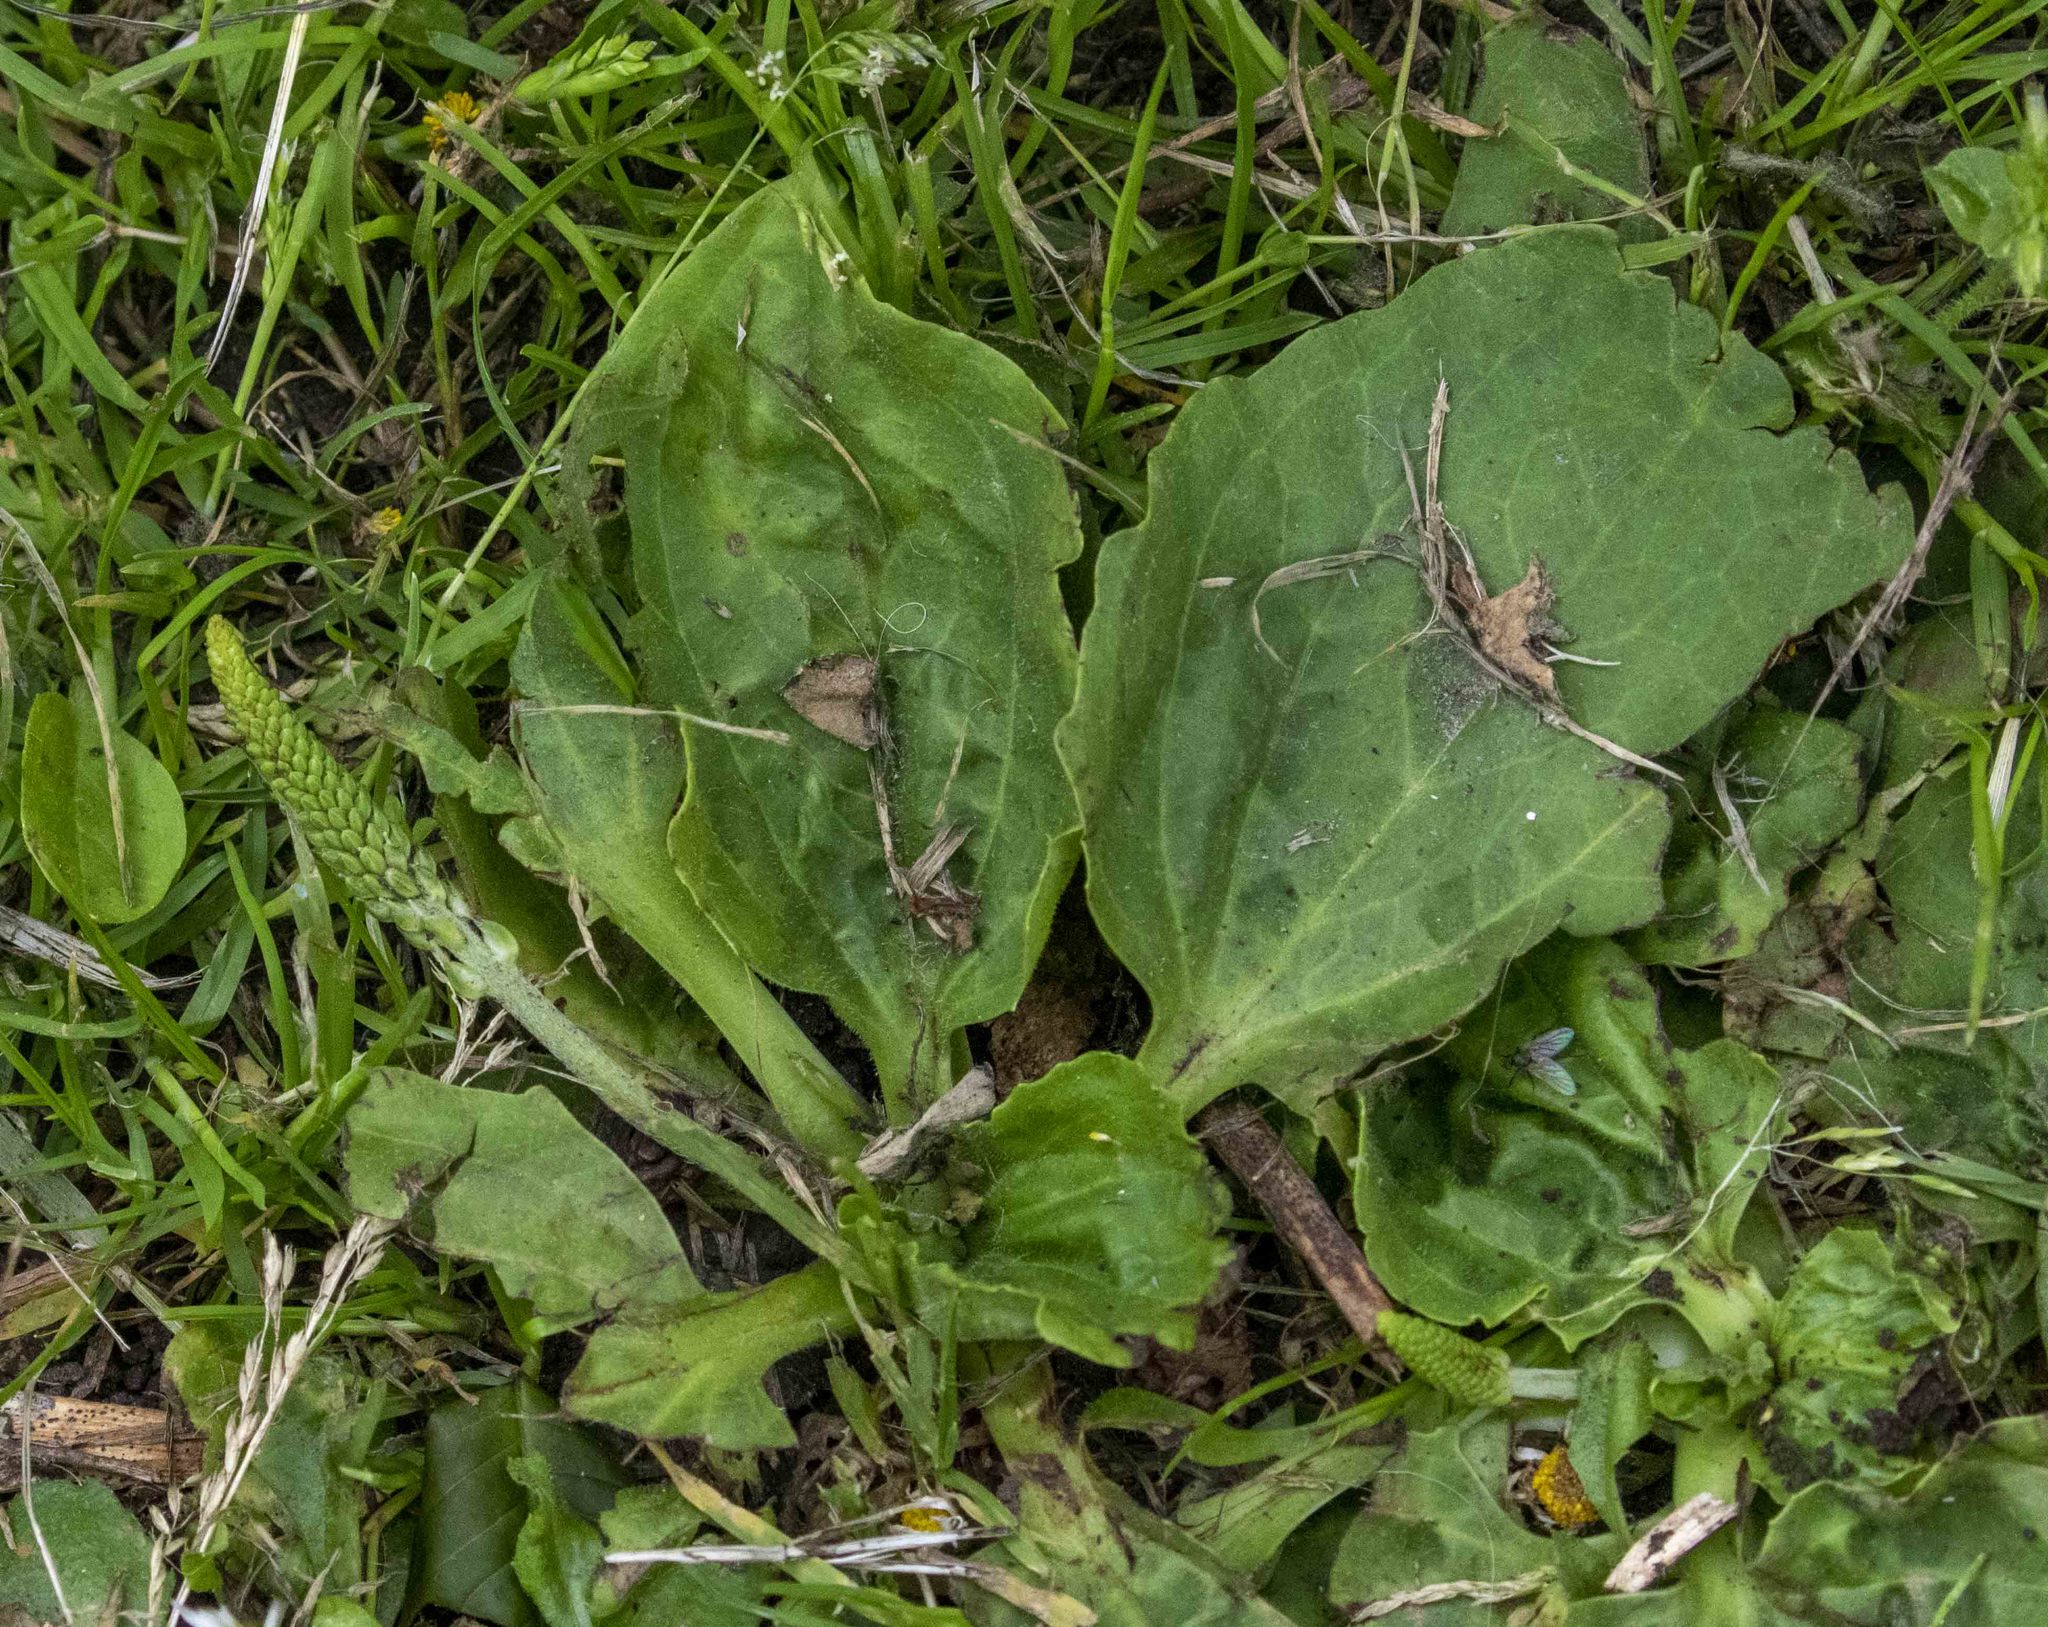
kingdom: Plantae
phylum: Tracheophyta
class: Magnoliopsida
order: Lamiales
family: Plantaginaceae
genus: Plantago
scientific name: Plantago major
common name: Common plantain
